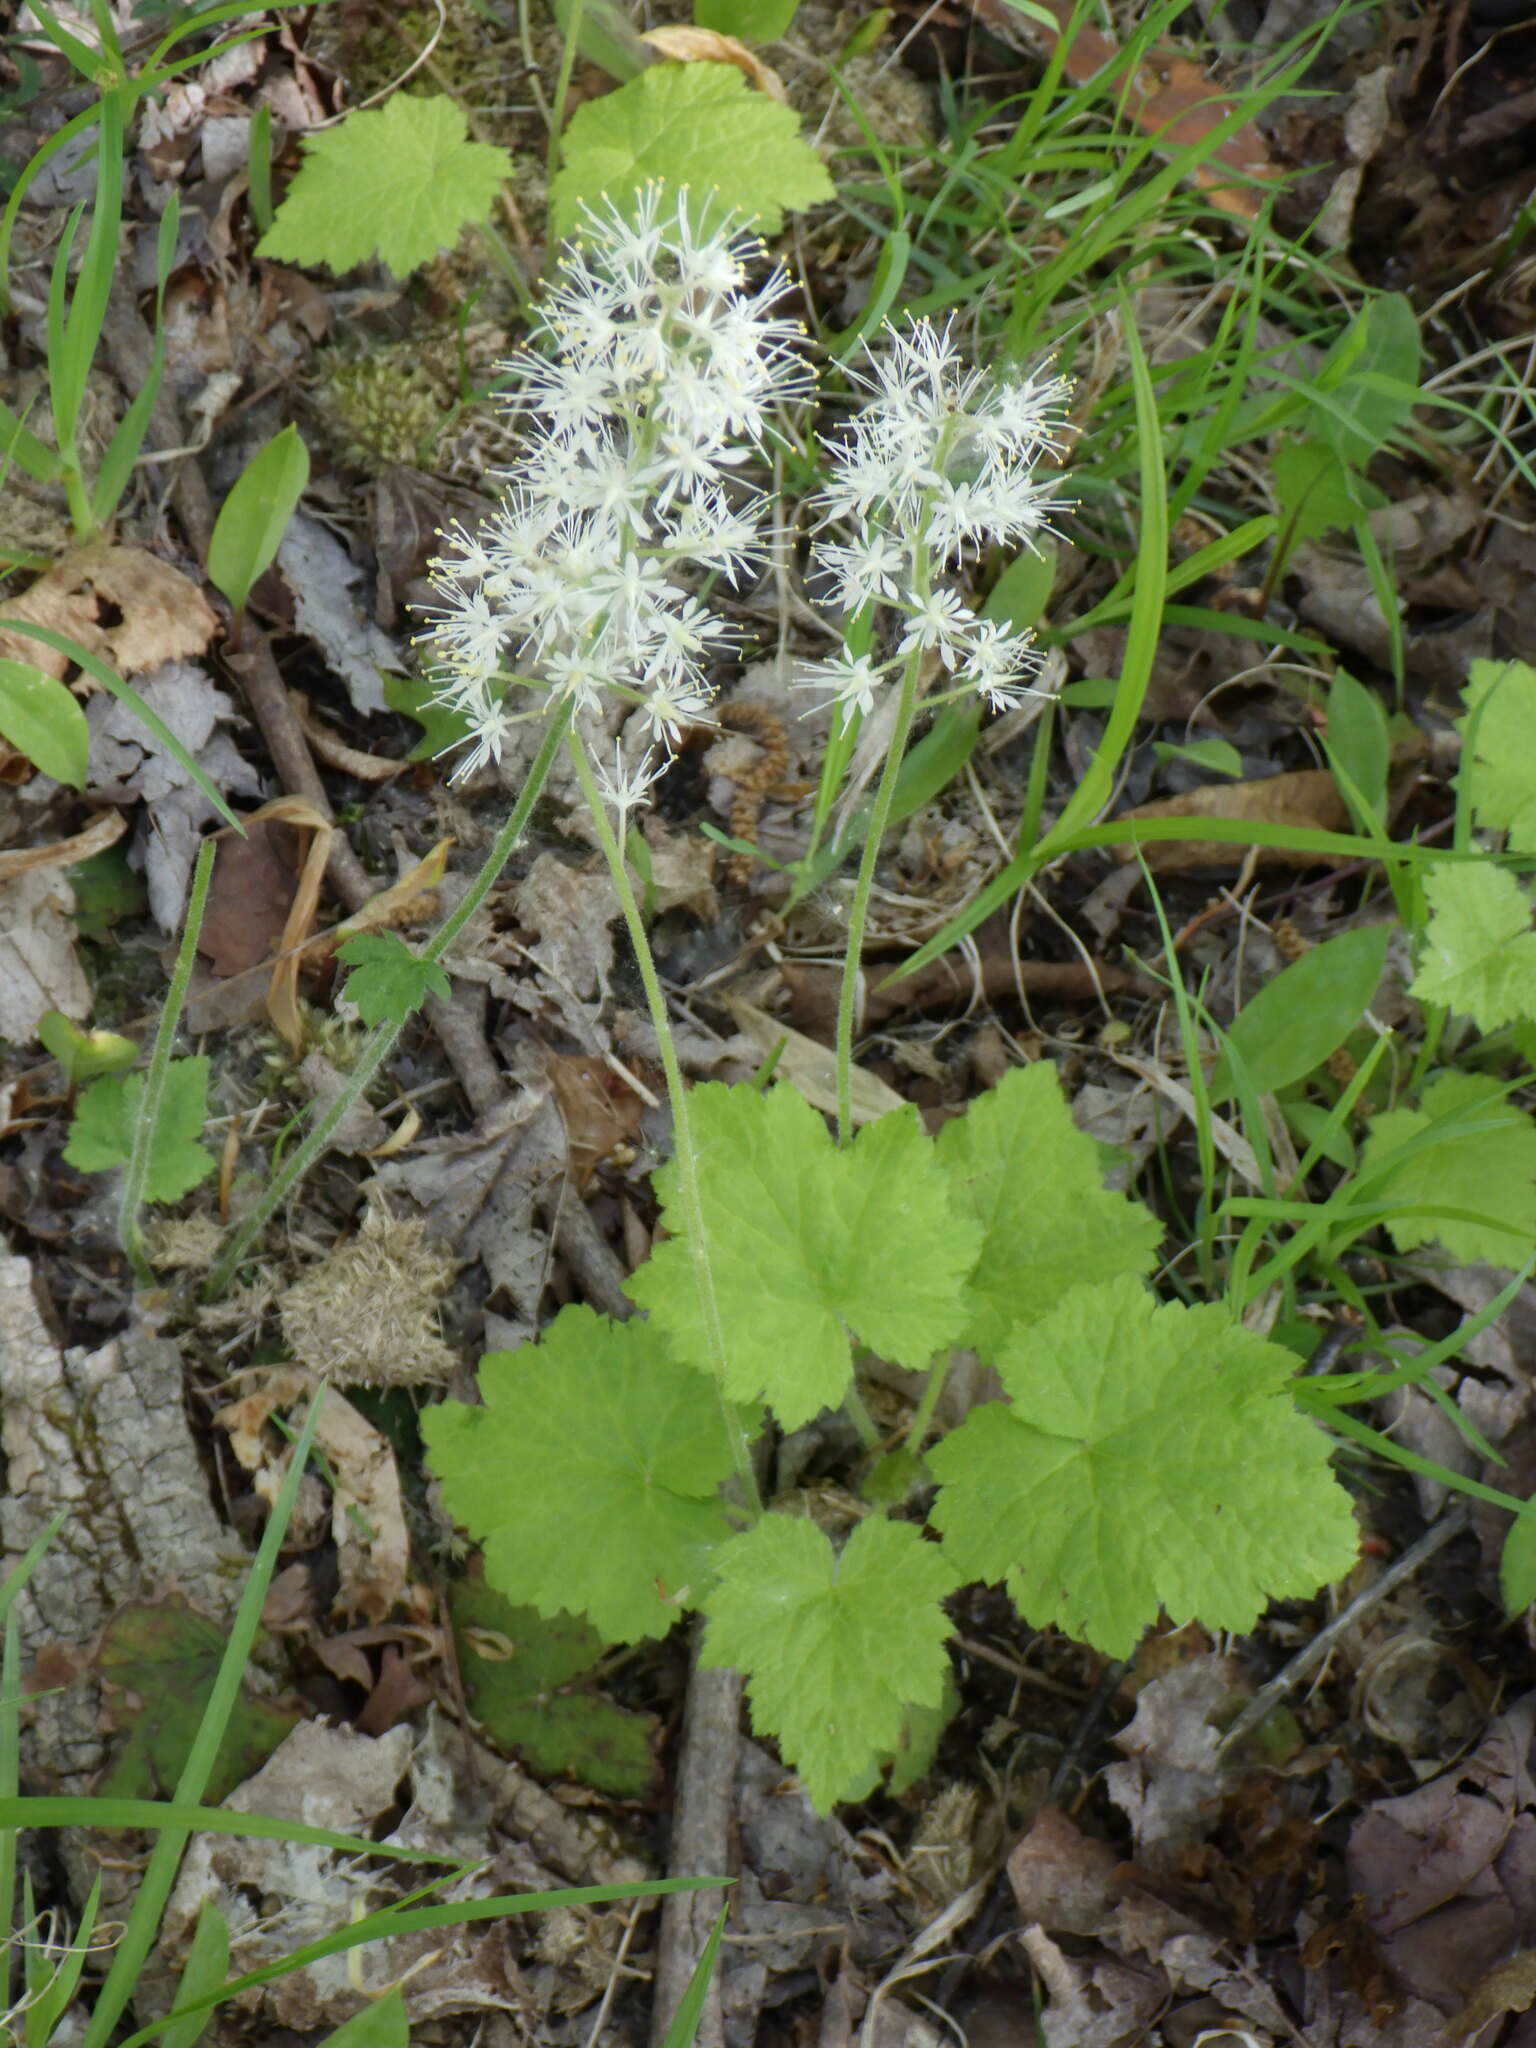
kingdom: Plantae
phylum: Tracheophyta
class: Magnoliopsida
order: Saxifragales
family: Saxifragaceae
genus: Tiarella
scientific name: Tiarella stolonifera
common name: Stoloniferous foamflower
